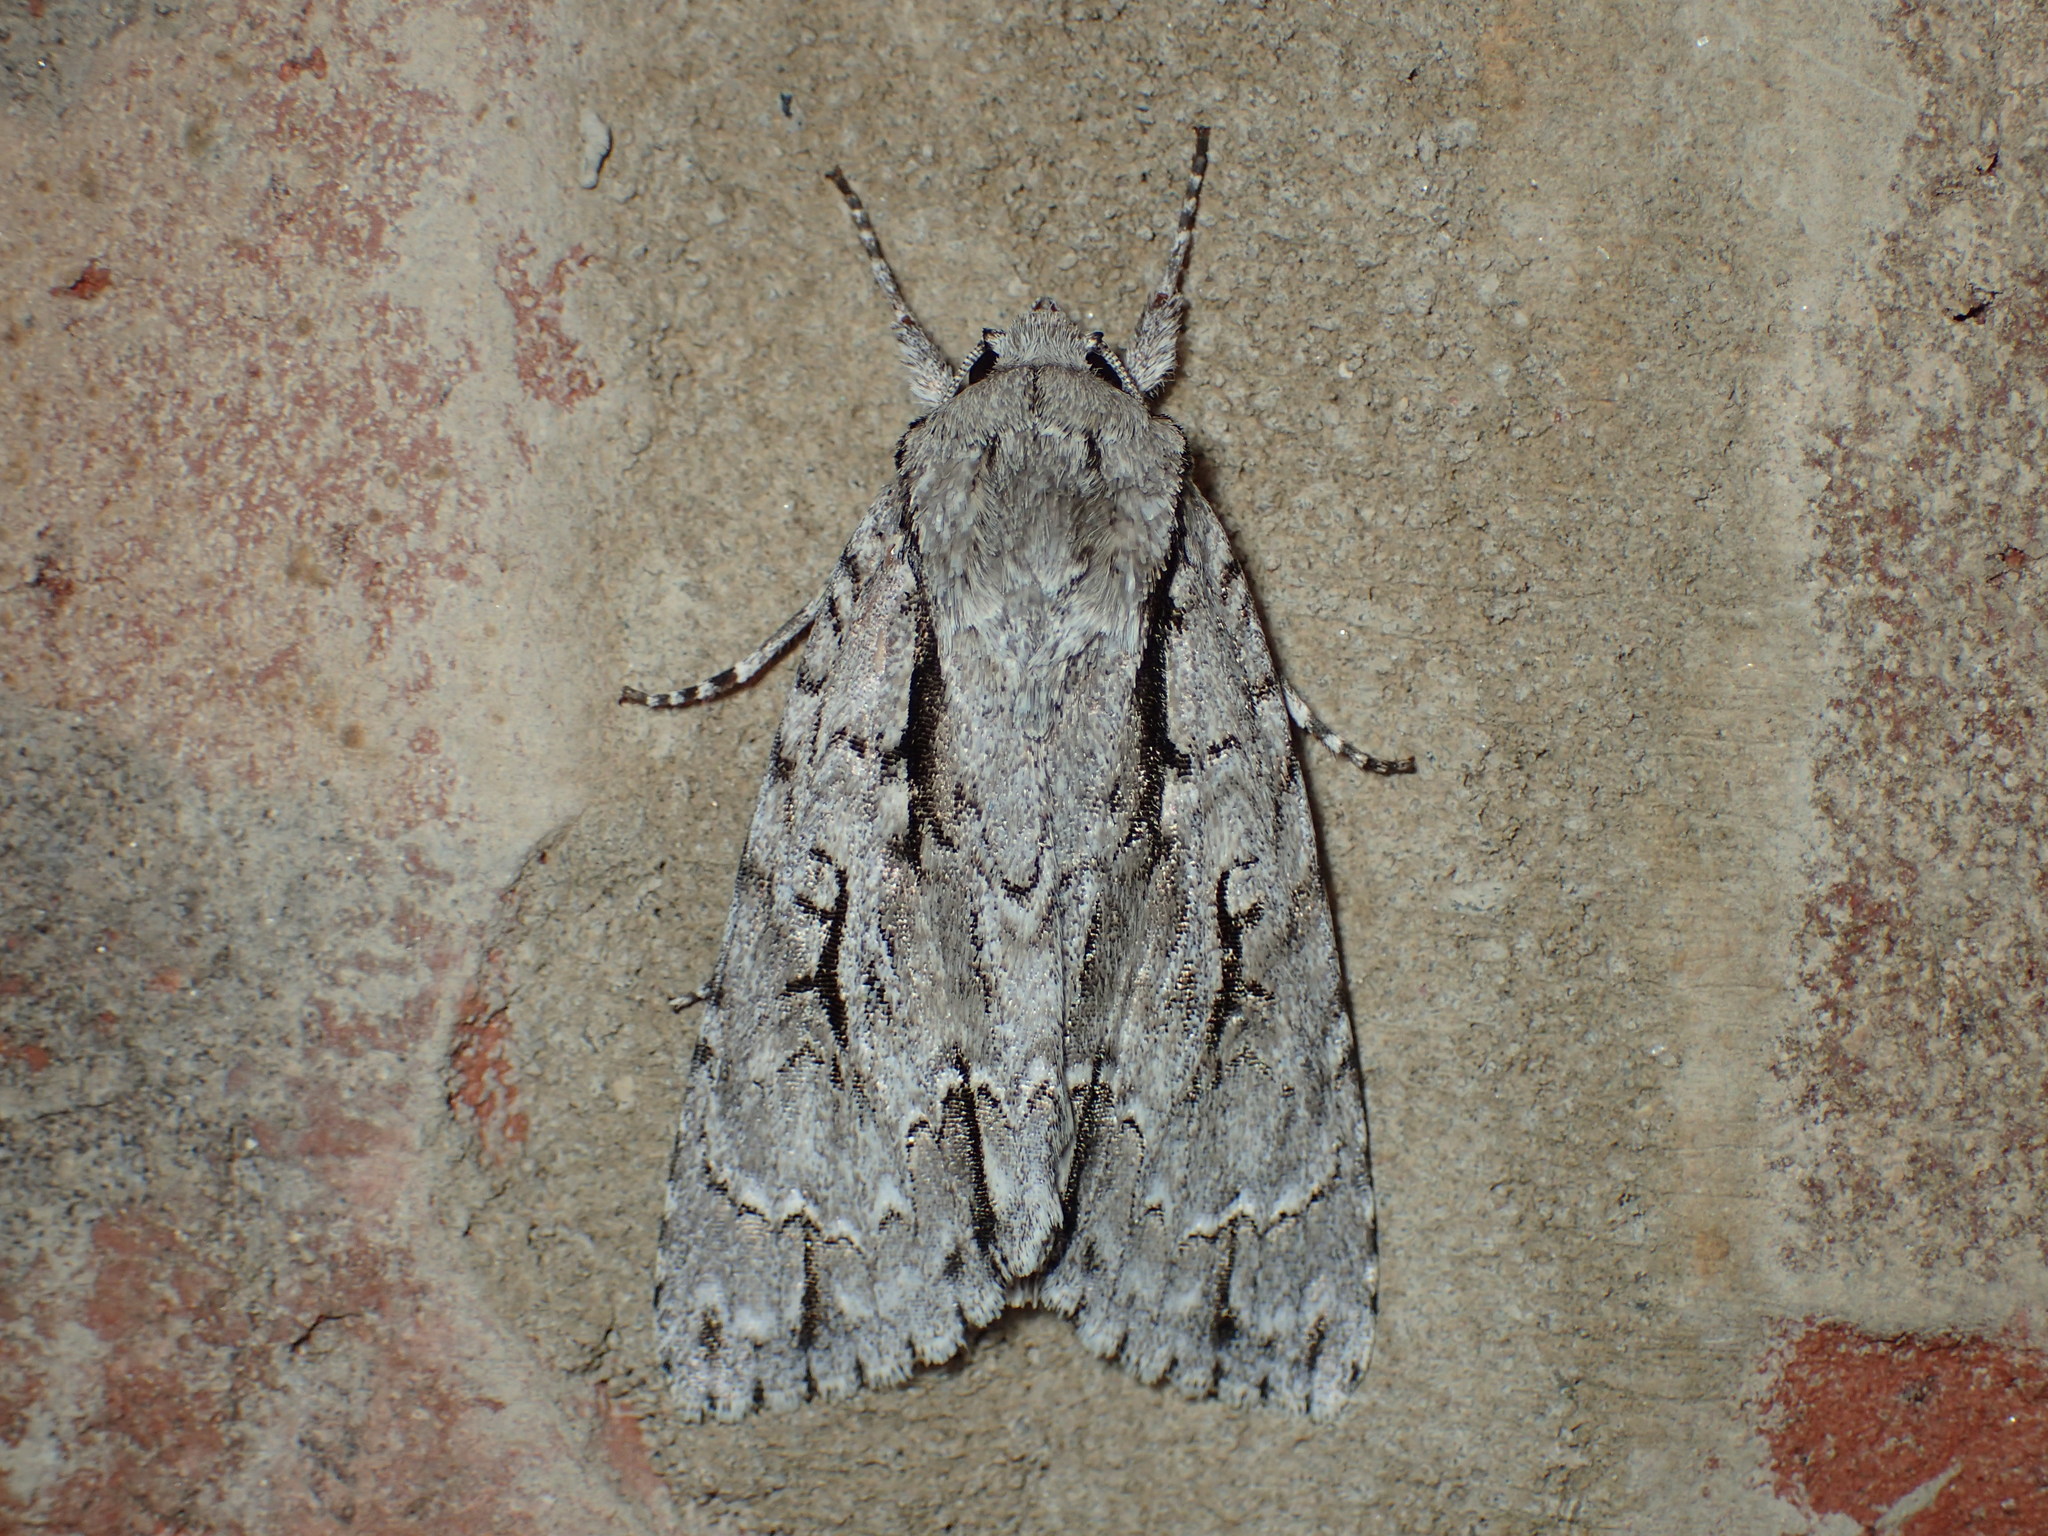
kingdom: Animalia
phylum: Arthropoda
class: Insecta
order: Lepidoptera
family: Noctuidae
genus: Acronicta
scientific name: Acronicta lobeliae
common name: Greater oak dagger
